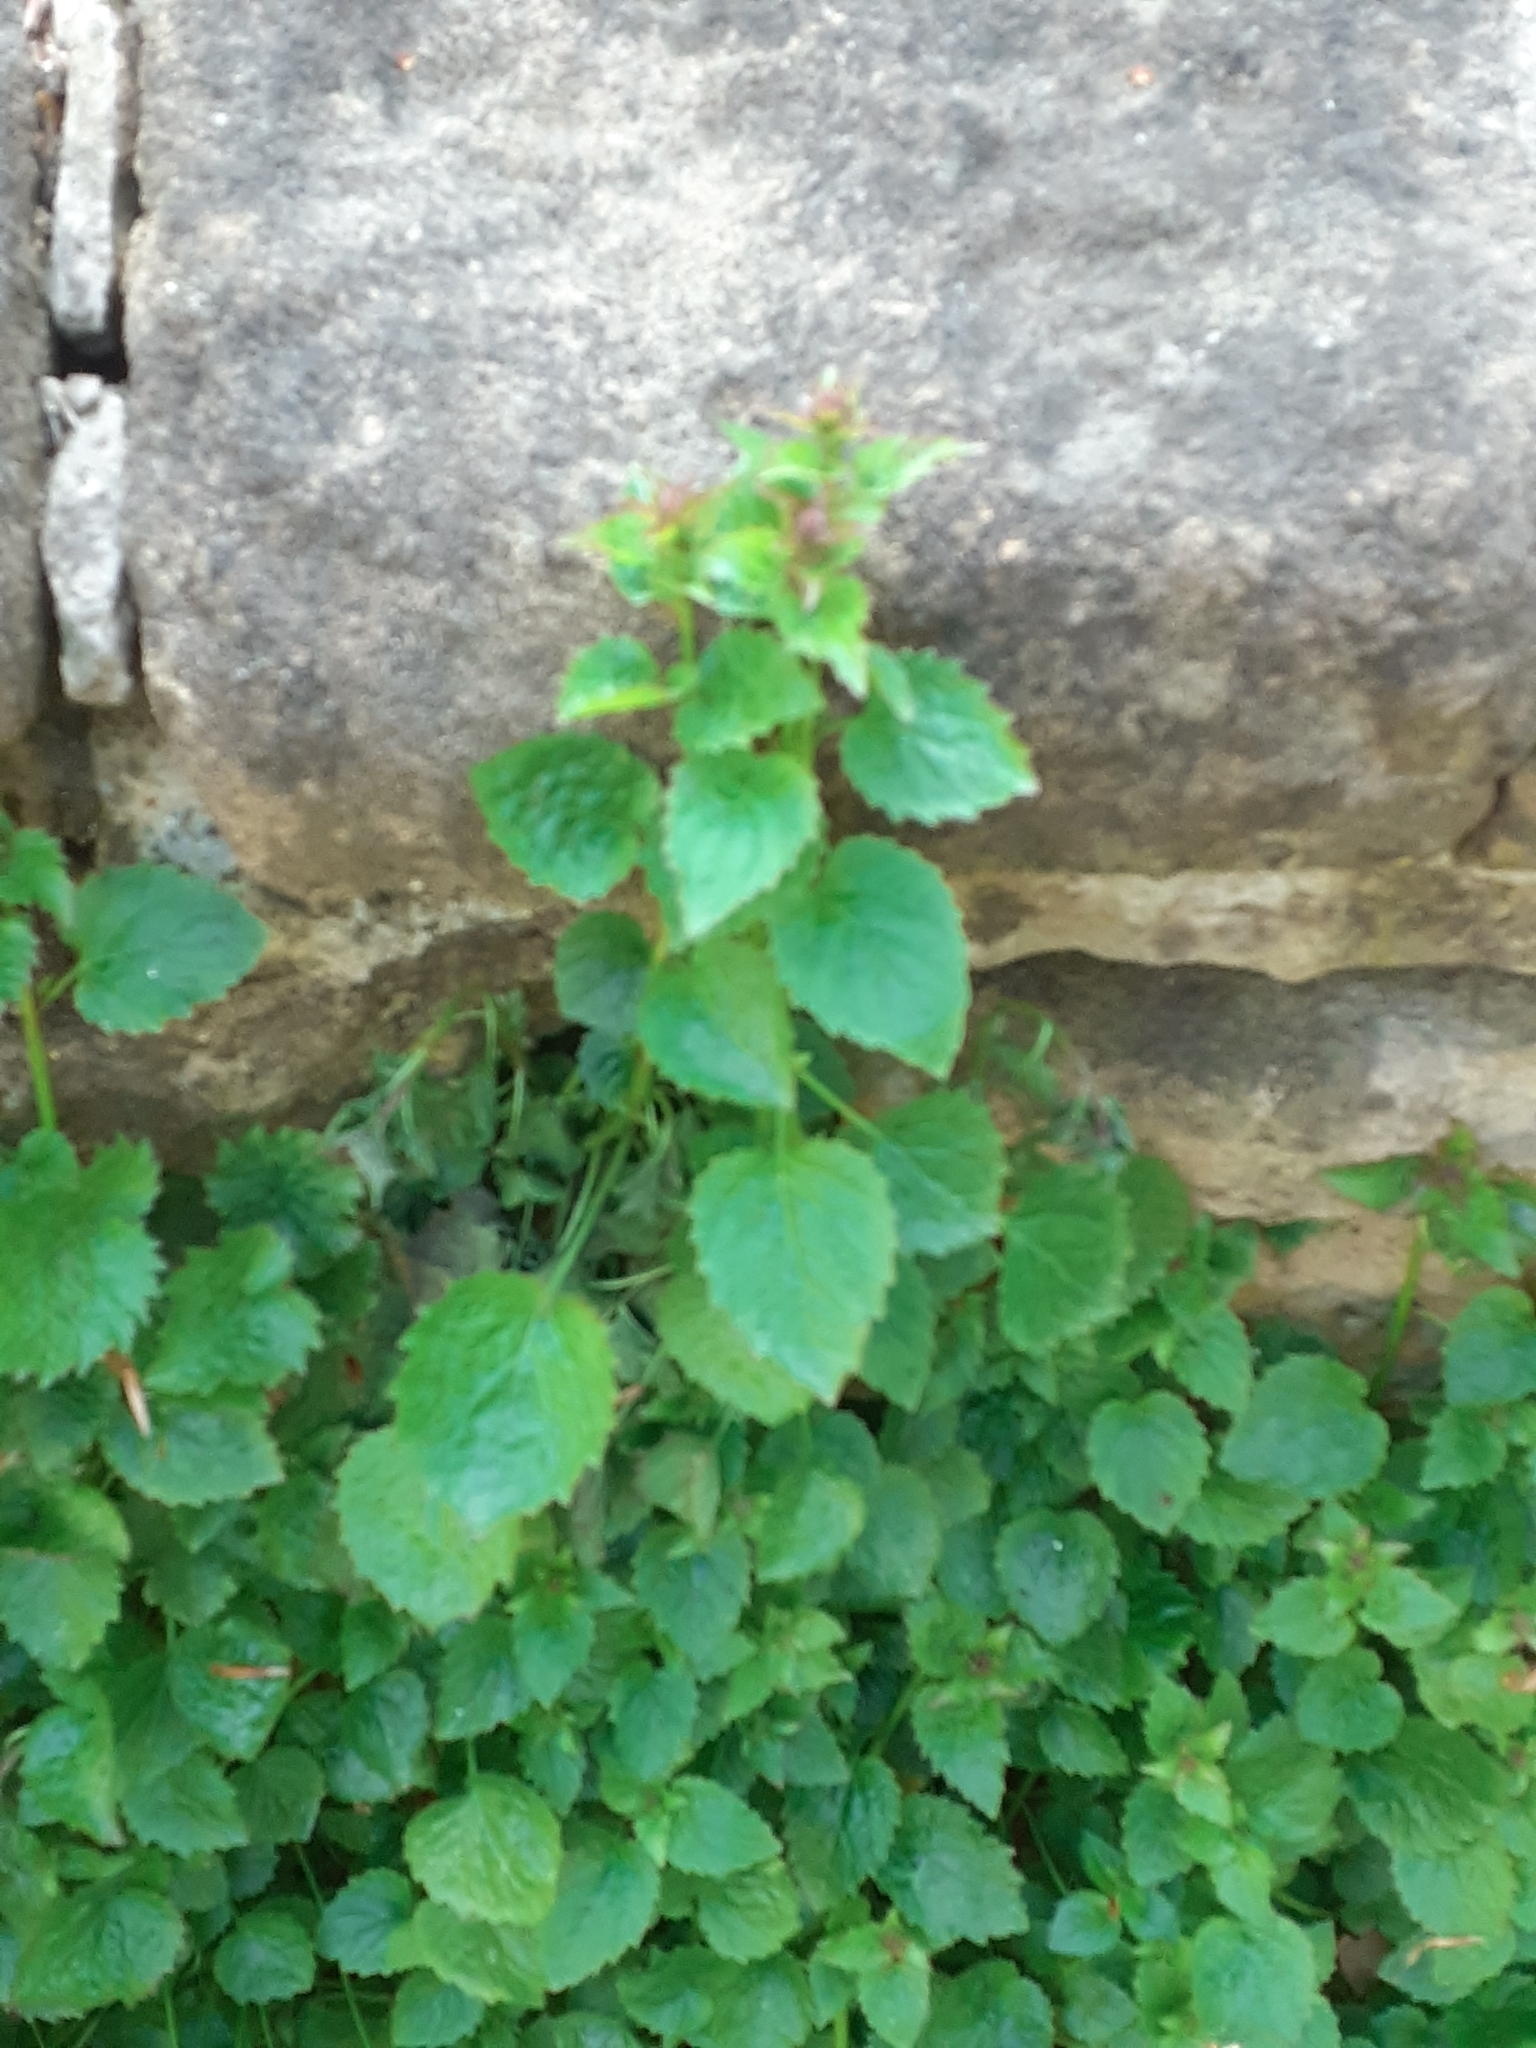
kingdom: Plantae
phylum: Tracheophyta
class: Magnoliopsida
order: Asterales
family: Campanulaceae
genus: Campanula
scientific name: Campanula poscharskyana
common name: Trailing bellflower
